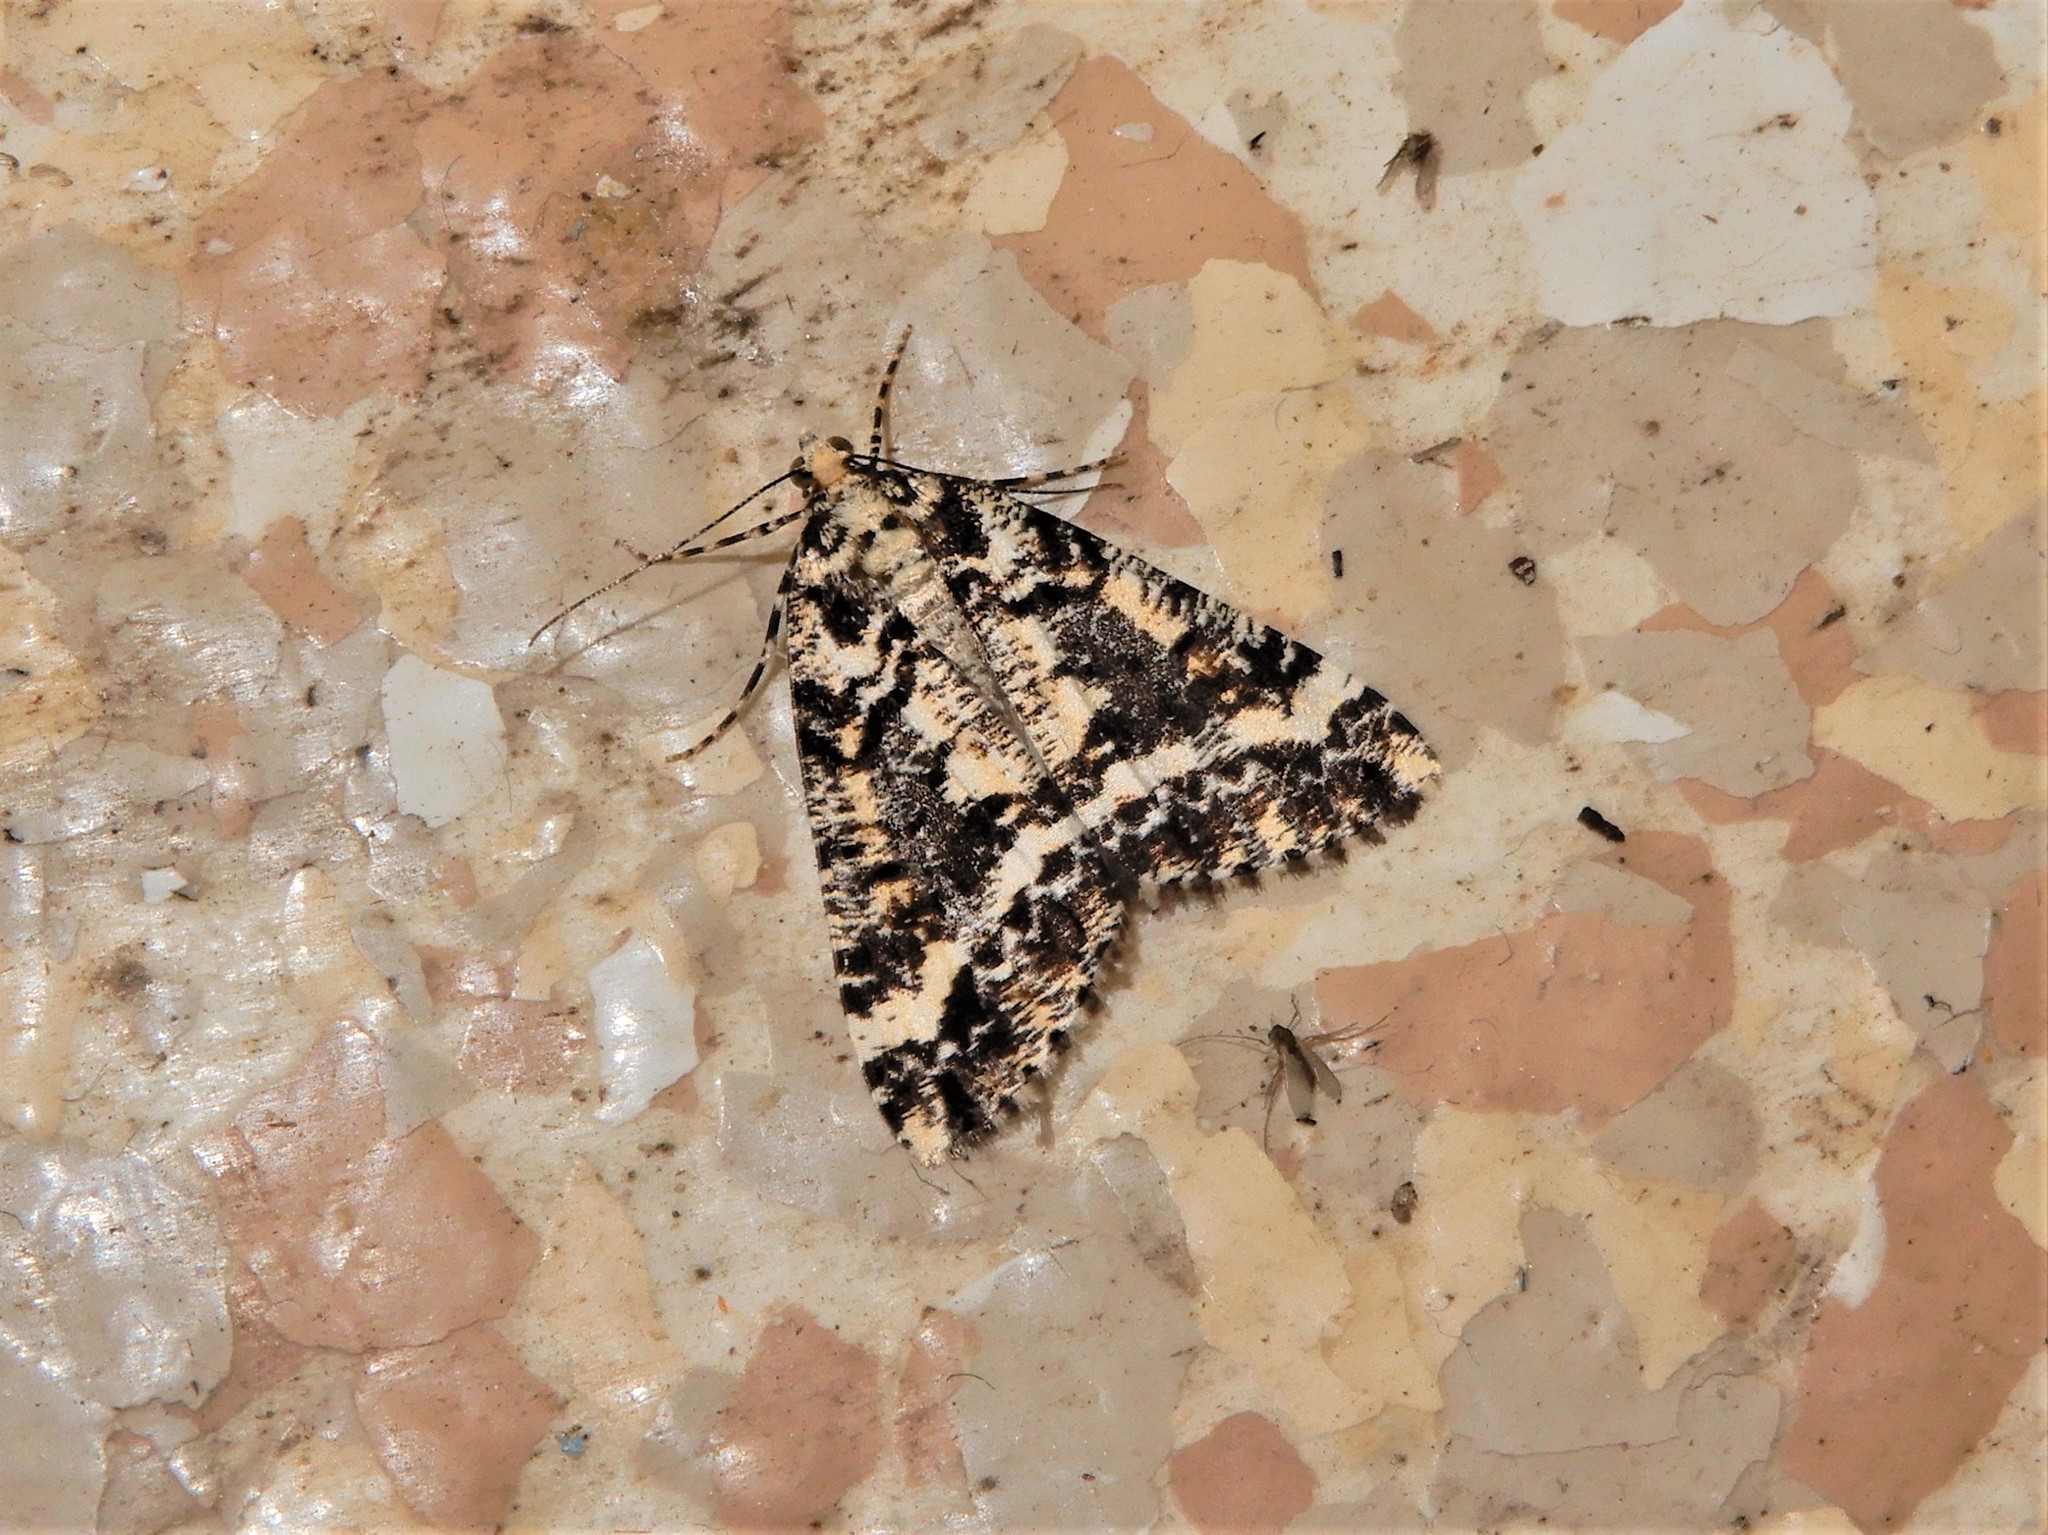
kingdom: Animalia
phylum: Arthropoda
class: Insecta
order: Lepidoptera
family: Geometridae
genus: Pseudocoremia
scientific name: Pseudocoremia leucelaea
